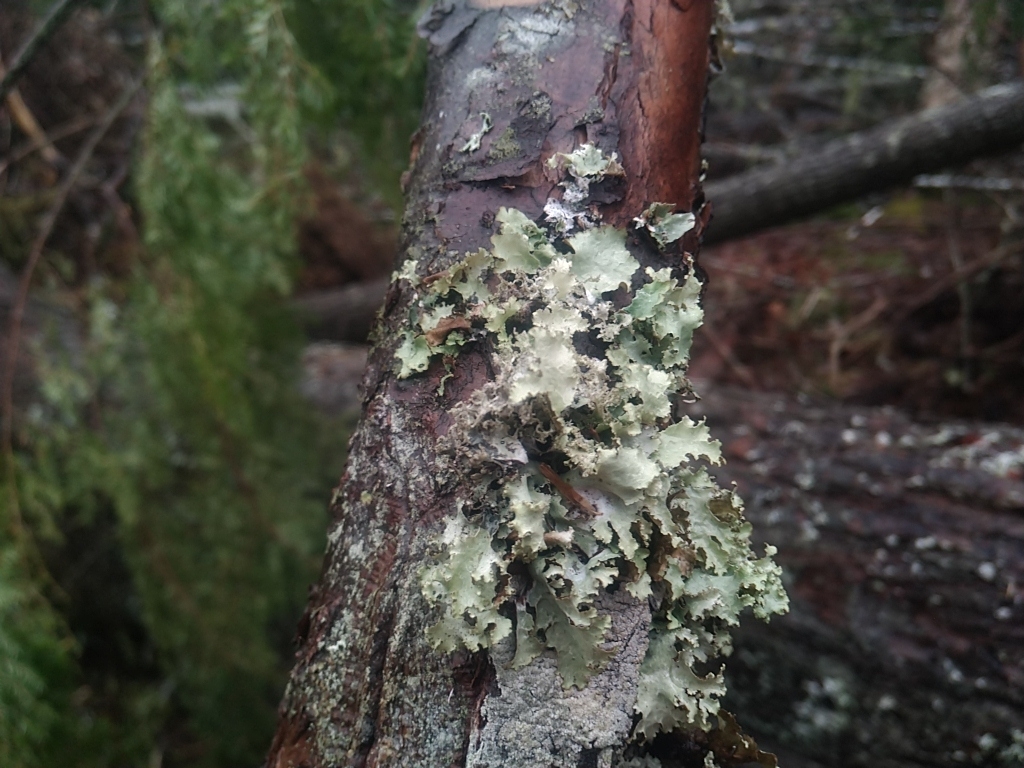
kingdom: Fungi
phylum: Ascomycota
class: Lecanoromycetes
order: Lecanorales
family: Parmeliaceae
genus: Platismatia
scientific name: Platismatia glauca
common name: Varied rag lichen
